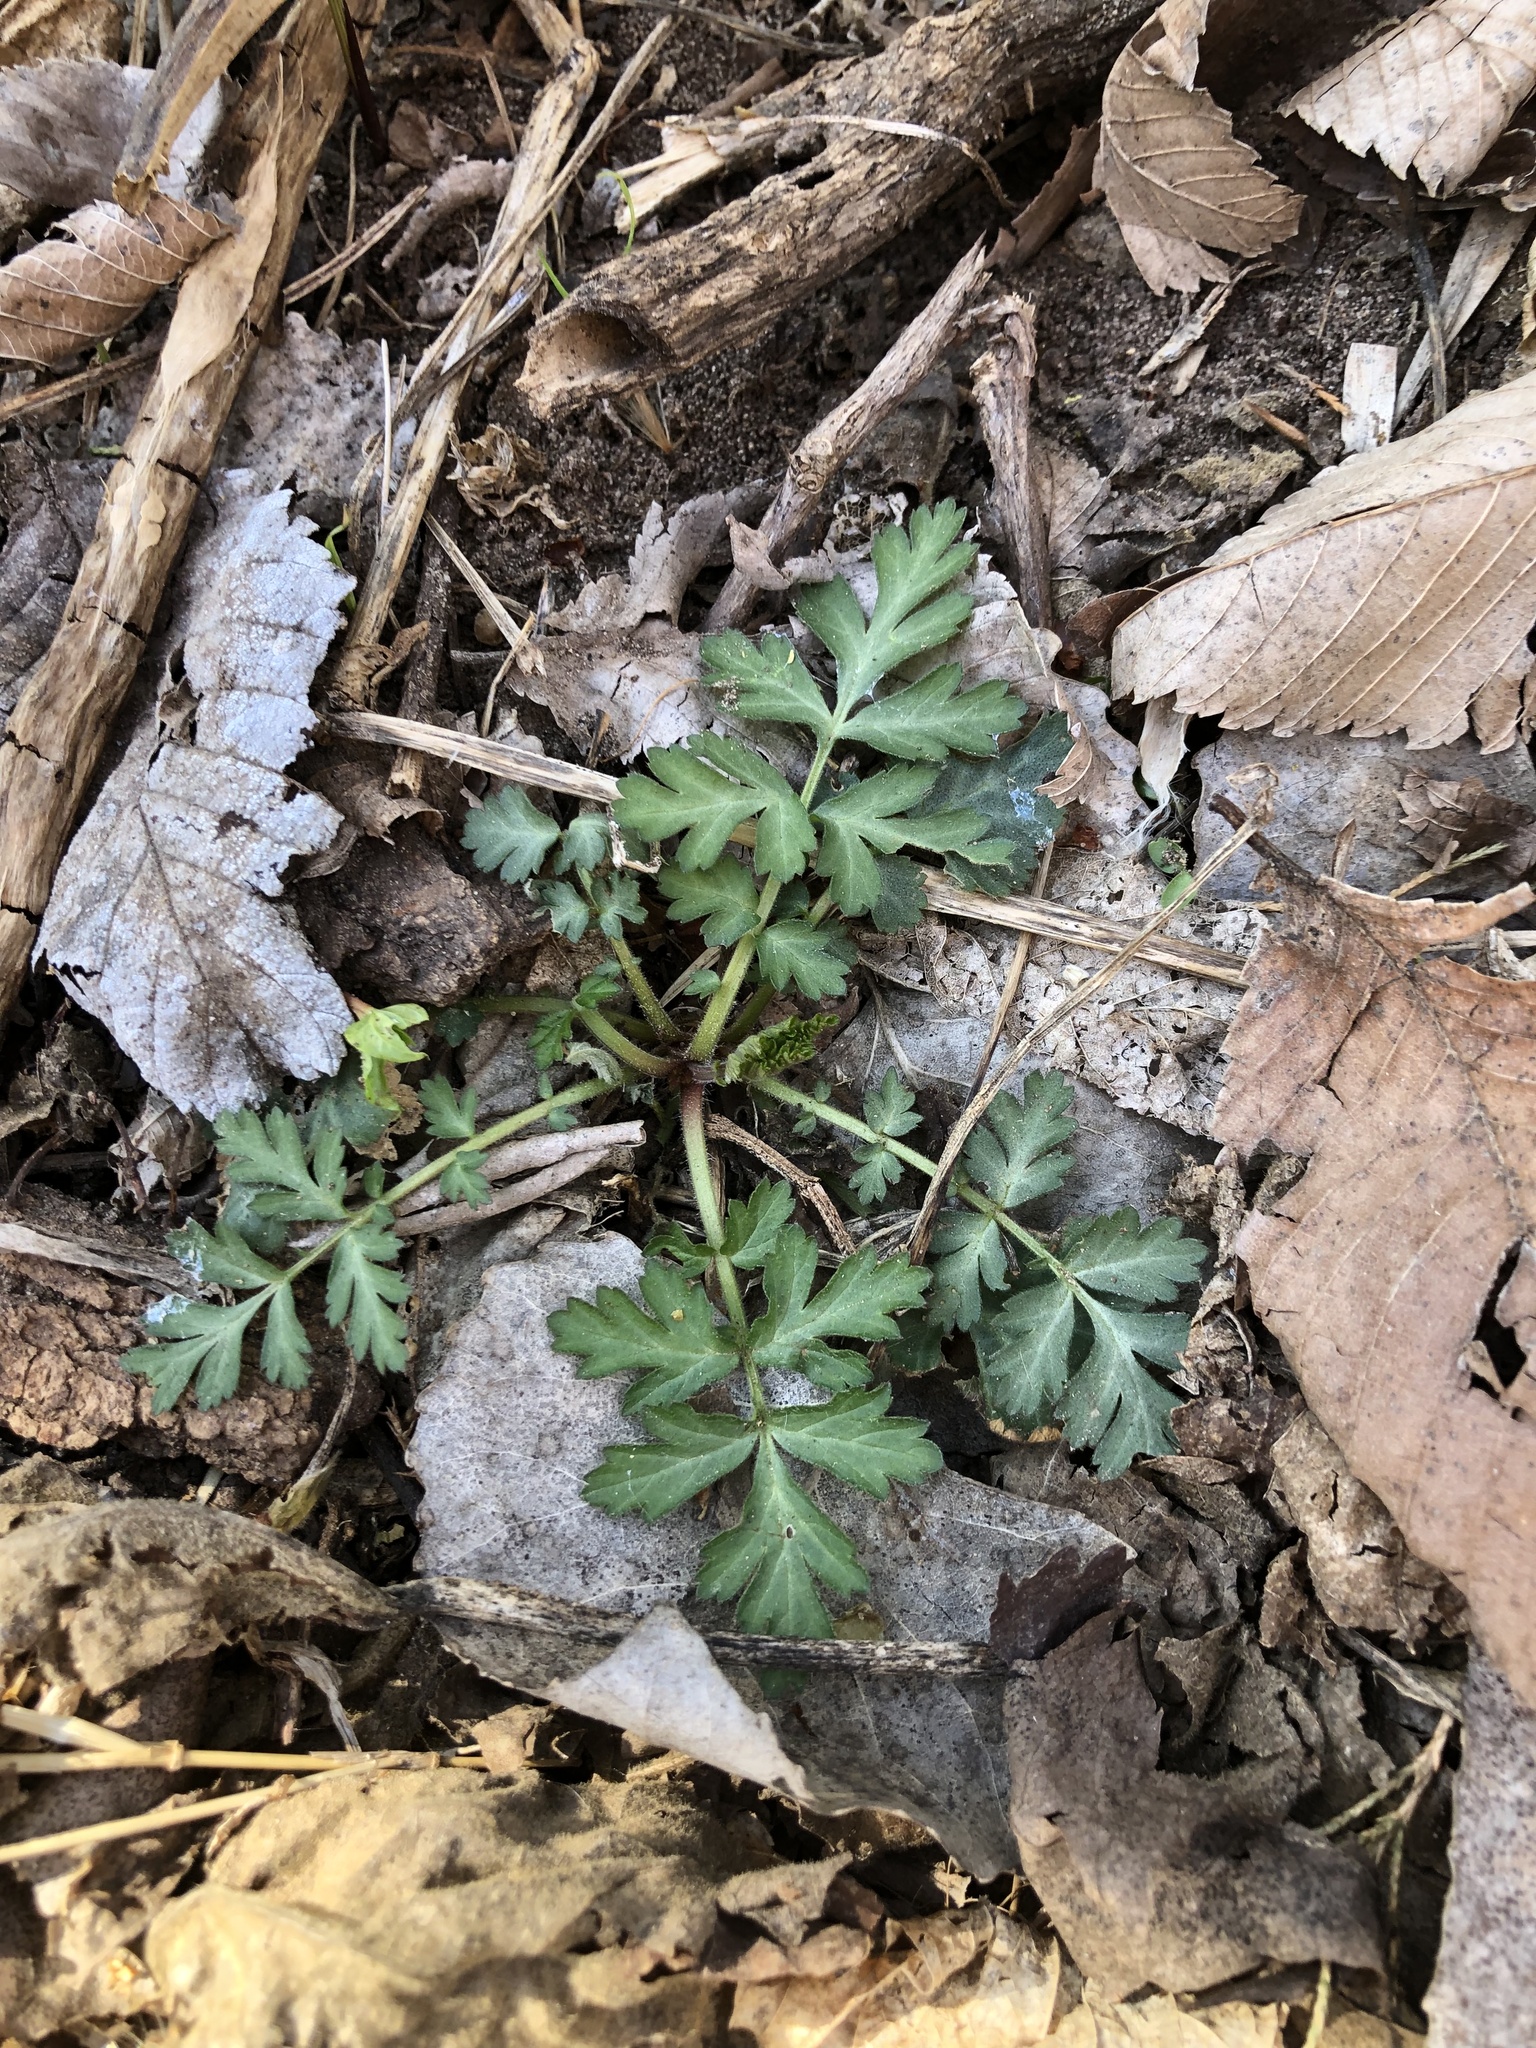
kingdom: Plantae
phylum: Tracheophyta
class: Magnoliopsida
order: Rosales
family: Rosaceae
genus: Geum
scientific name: Geum canadense
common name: White avens
